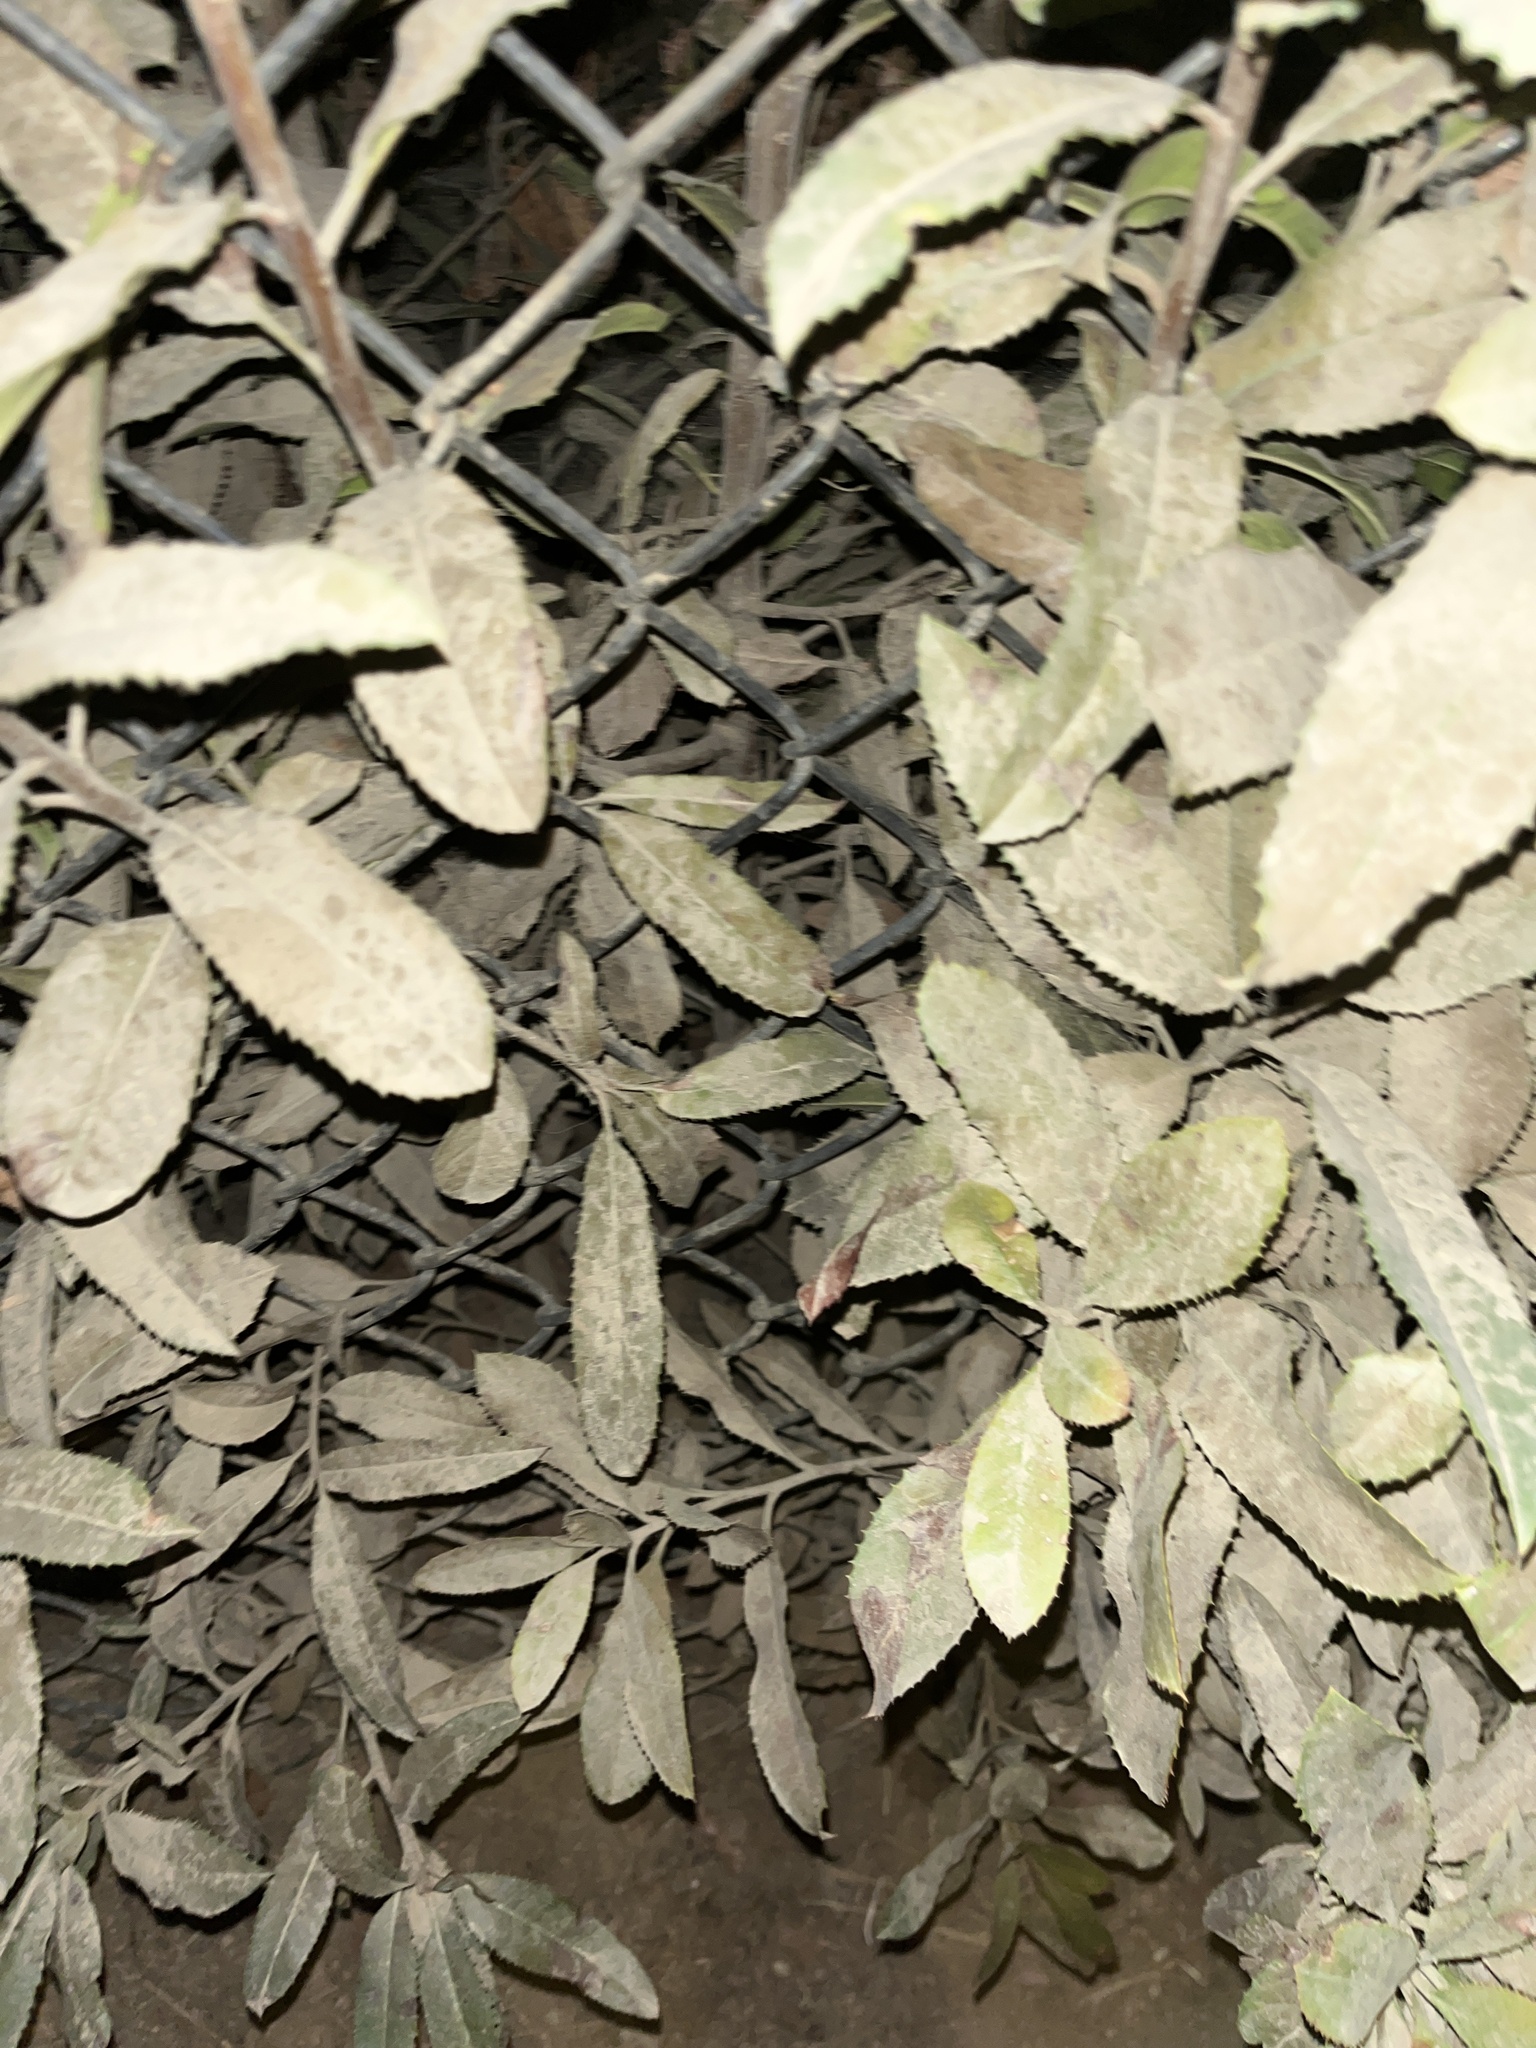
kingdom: Plantae
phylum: Tracheophyta
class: Magnoliopsida
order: Rosales
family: Rosaceae
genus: Heteromeles
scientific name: Heteromeles arbutifolia
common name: California-holly
